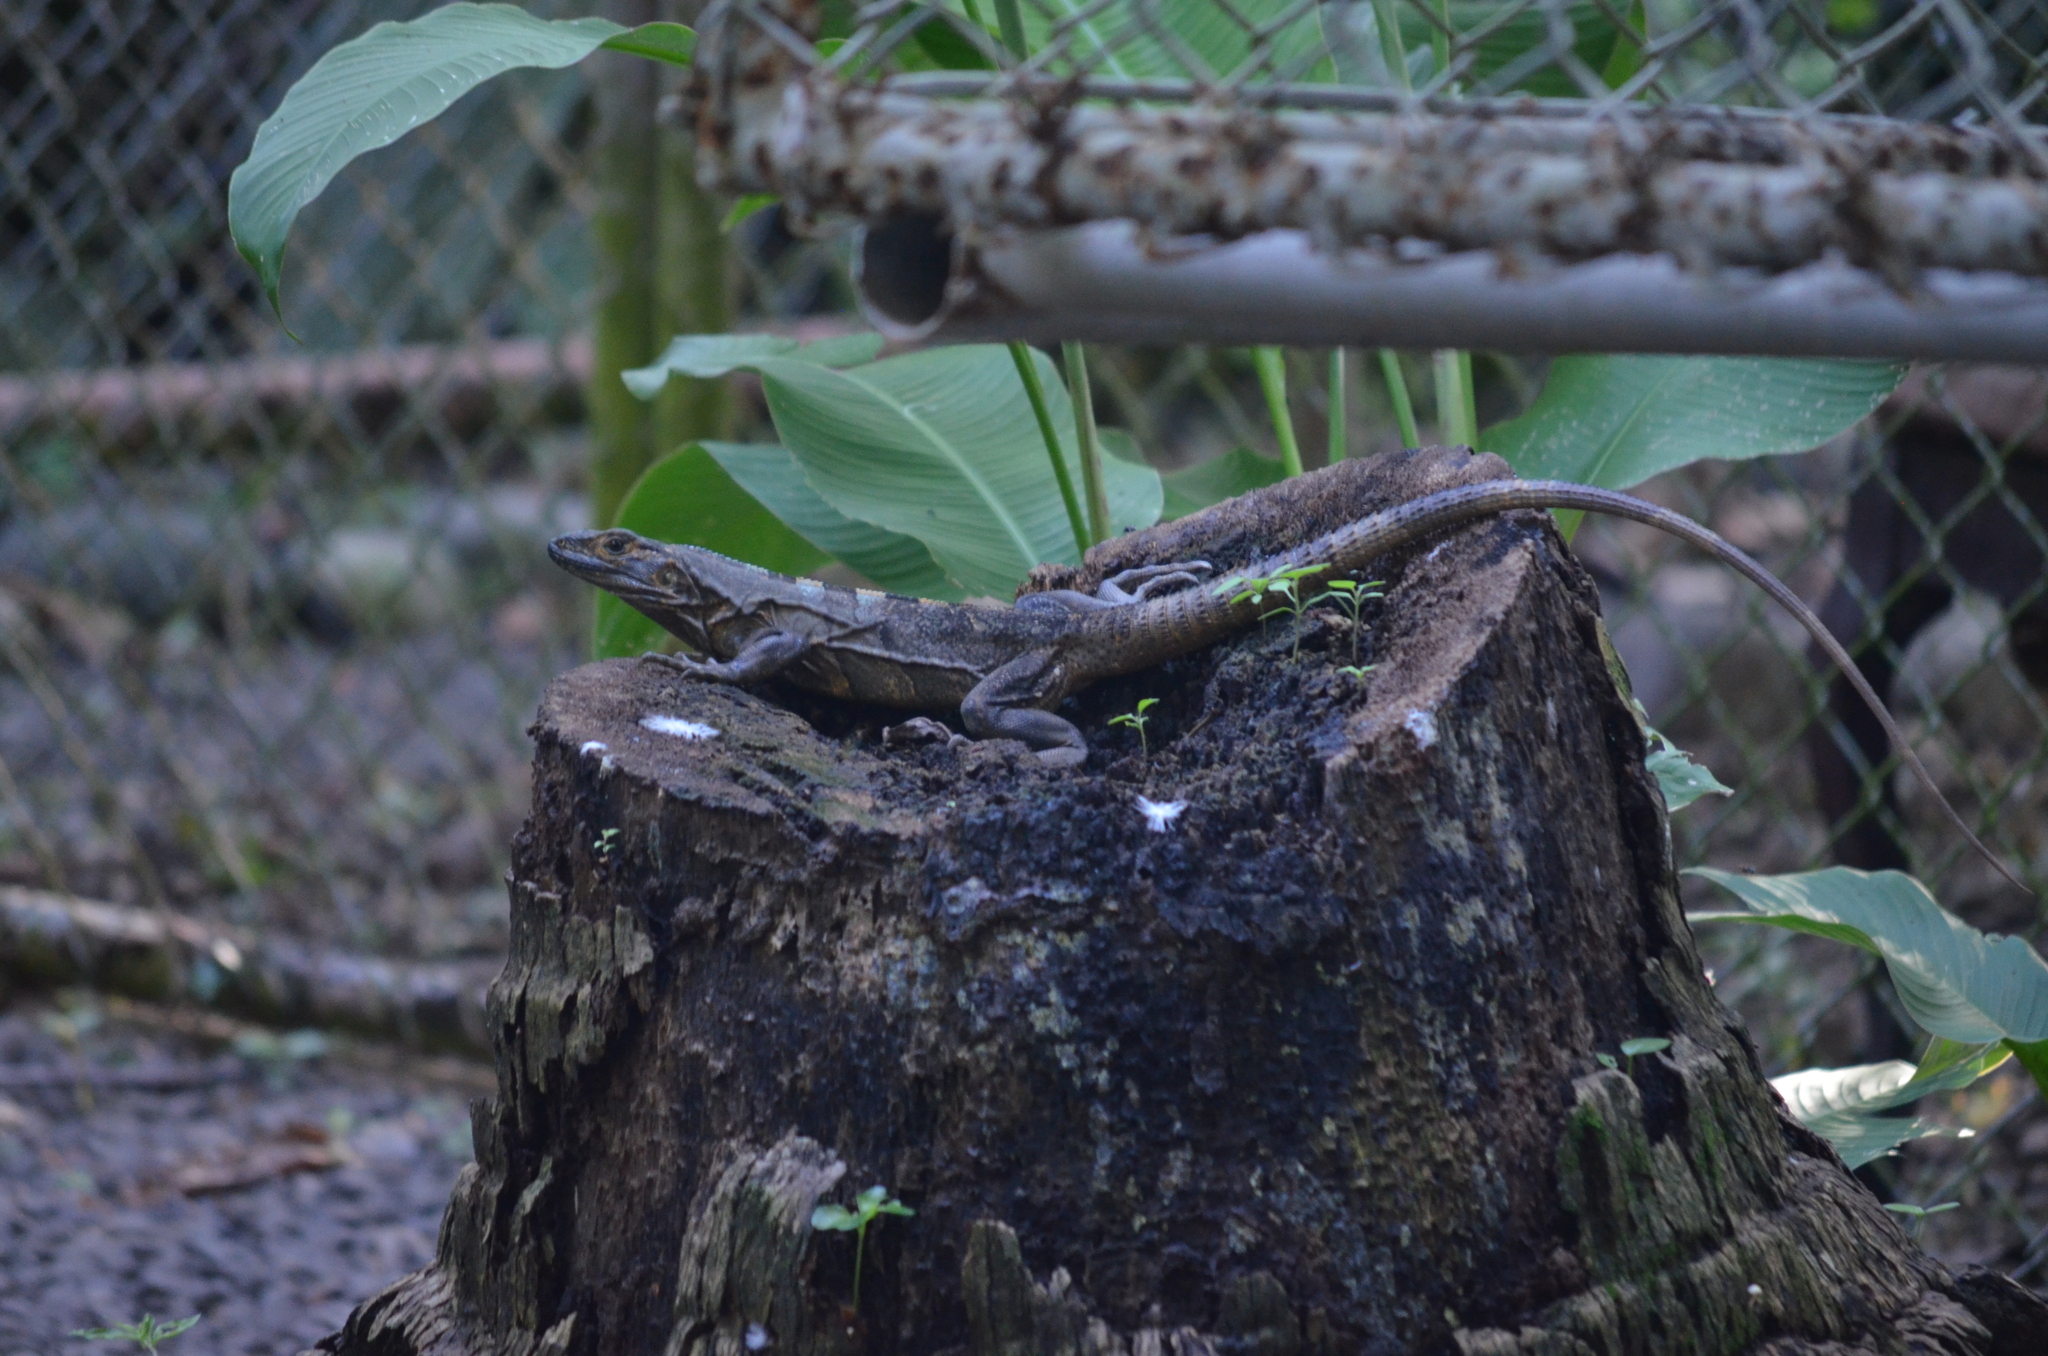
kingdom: Animalia
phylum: Chordata
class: Squamata
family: Iguanidae
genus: Ctenosaura
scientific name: Ctenosaura similis
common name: Black spiny-tailed iguana
